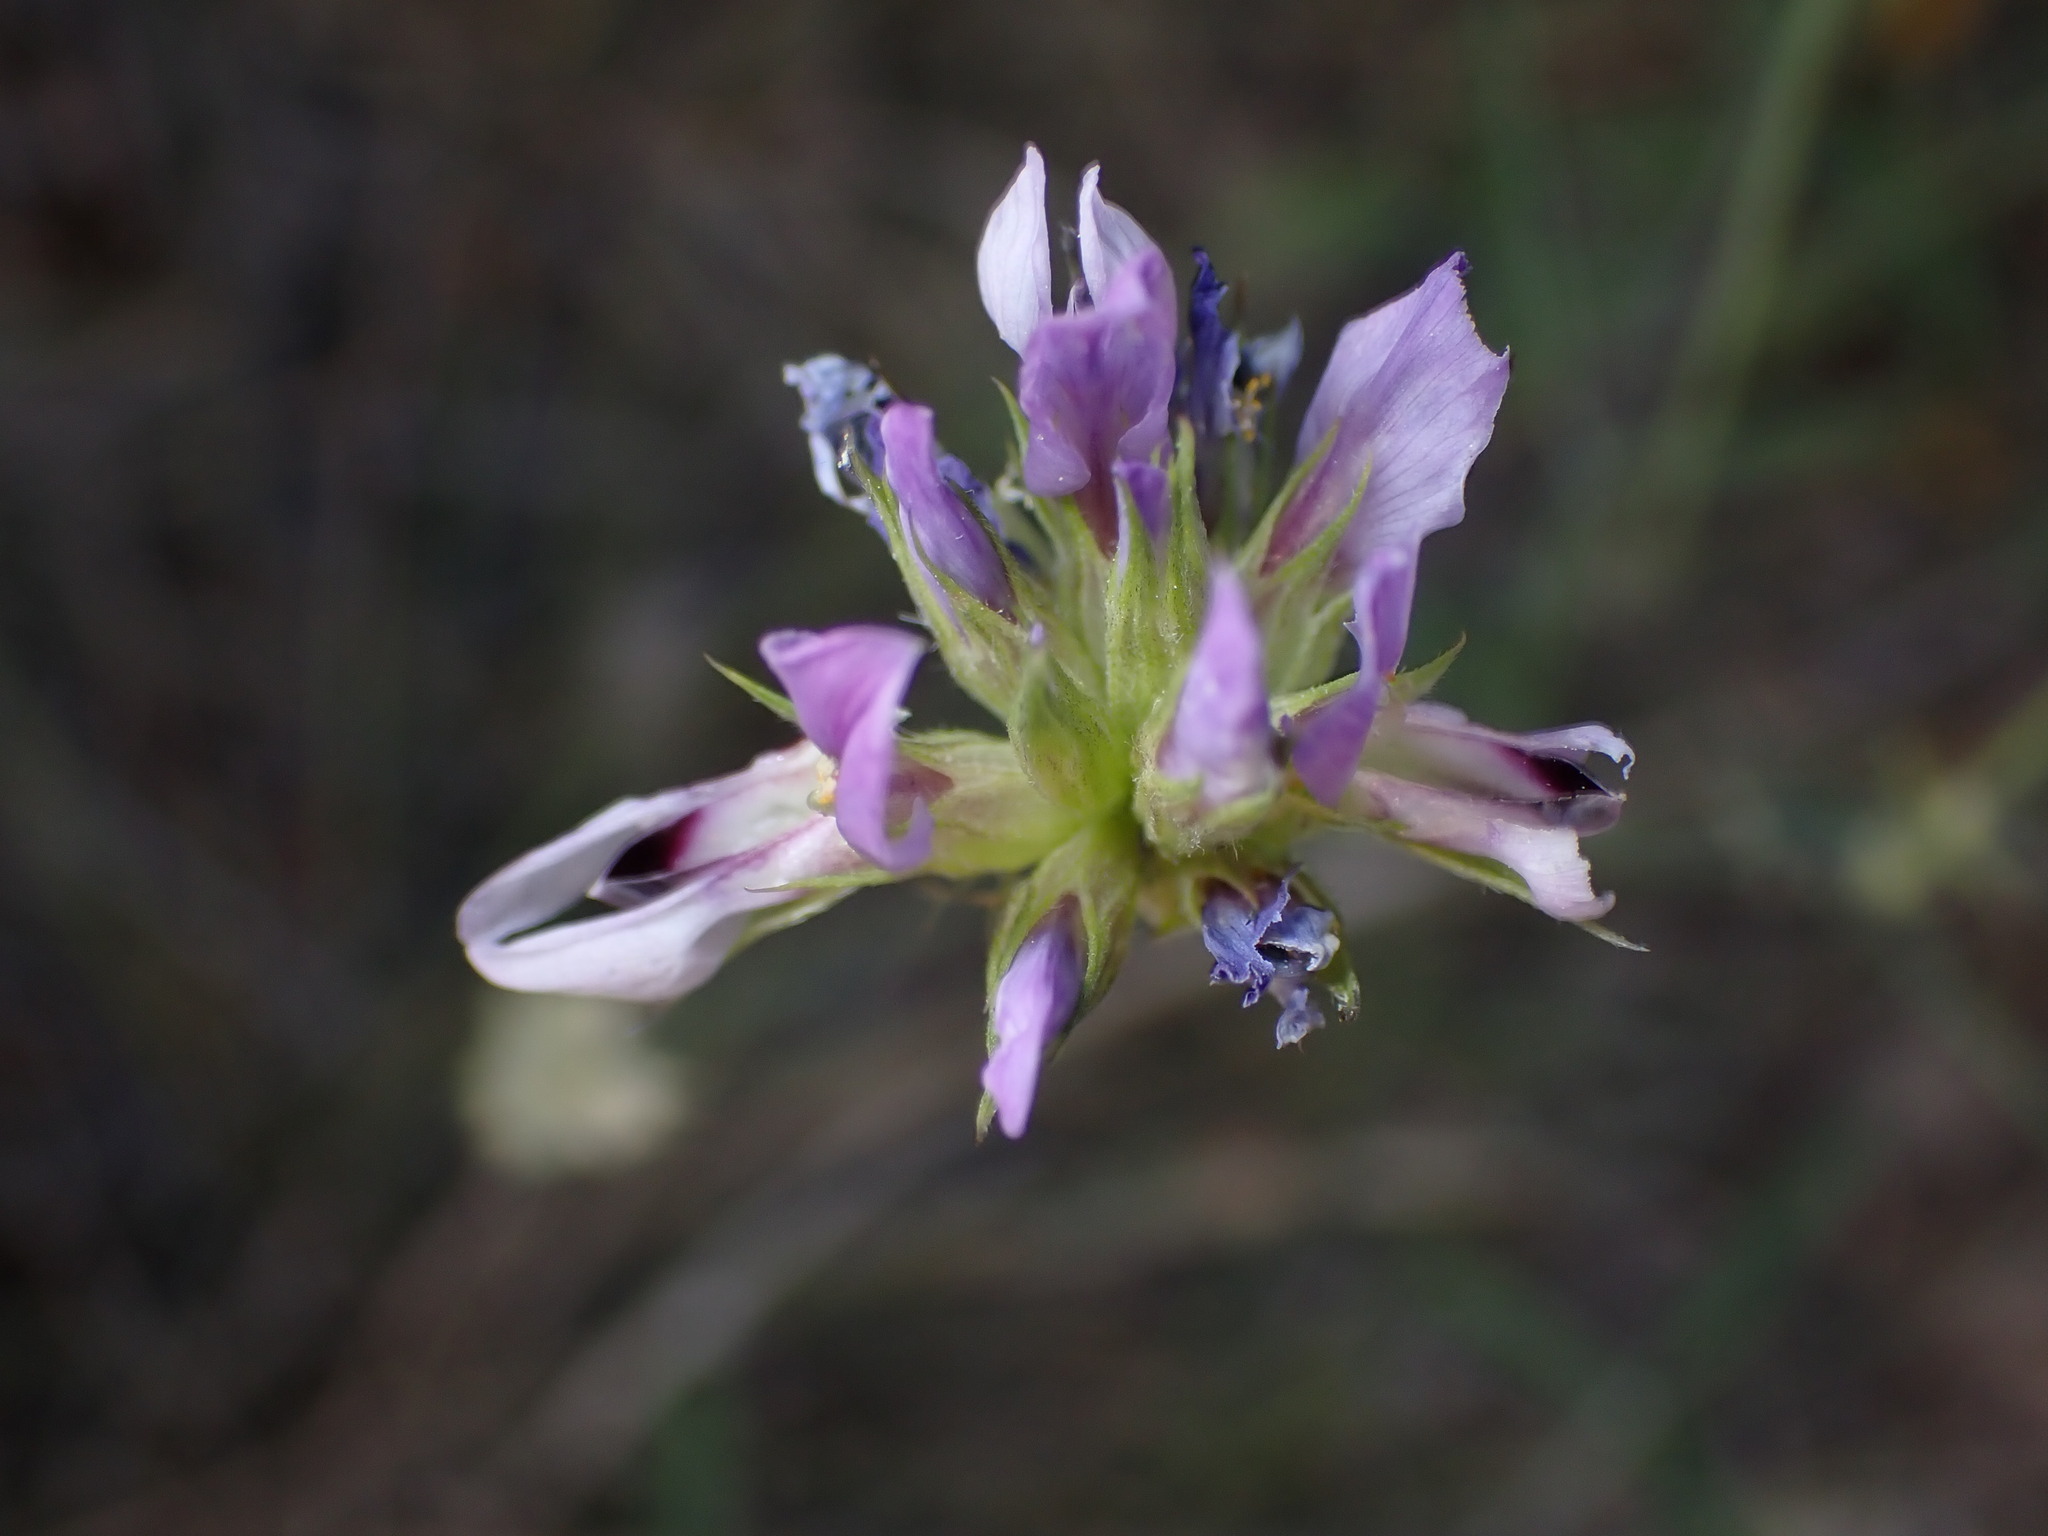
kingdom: Plantae
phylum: Tracheophyta
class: Magnoliopsida
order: Fabales
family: Fabaceae
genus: Bituminaria
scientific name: Bituminaria bituminosa
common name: Arabian pea
